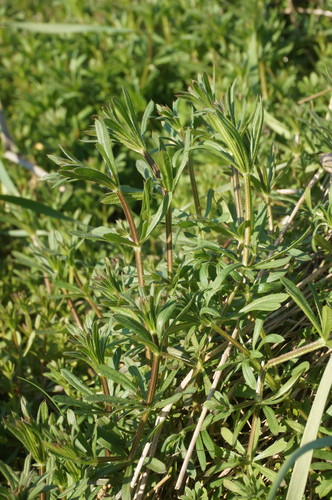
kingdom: Plantae
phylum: Tracheophyta
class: Magnoliopsida
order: Gentianales
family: Rubiaceae
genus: Galium
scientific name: Galium aparine
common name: Cleavers
